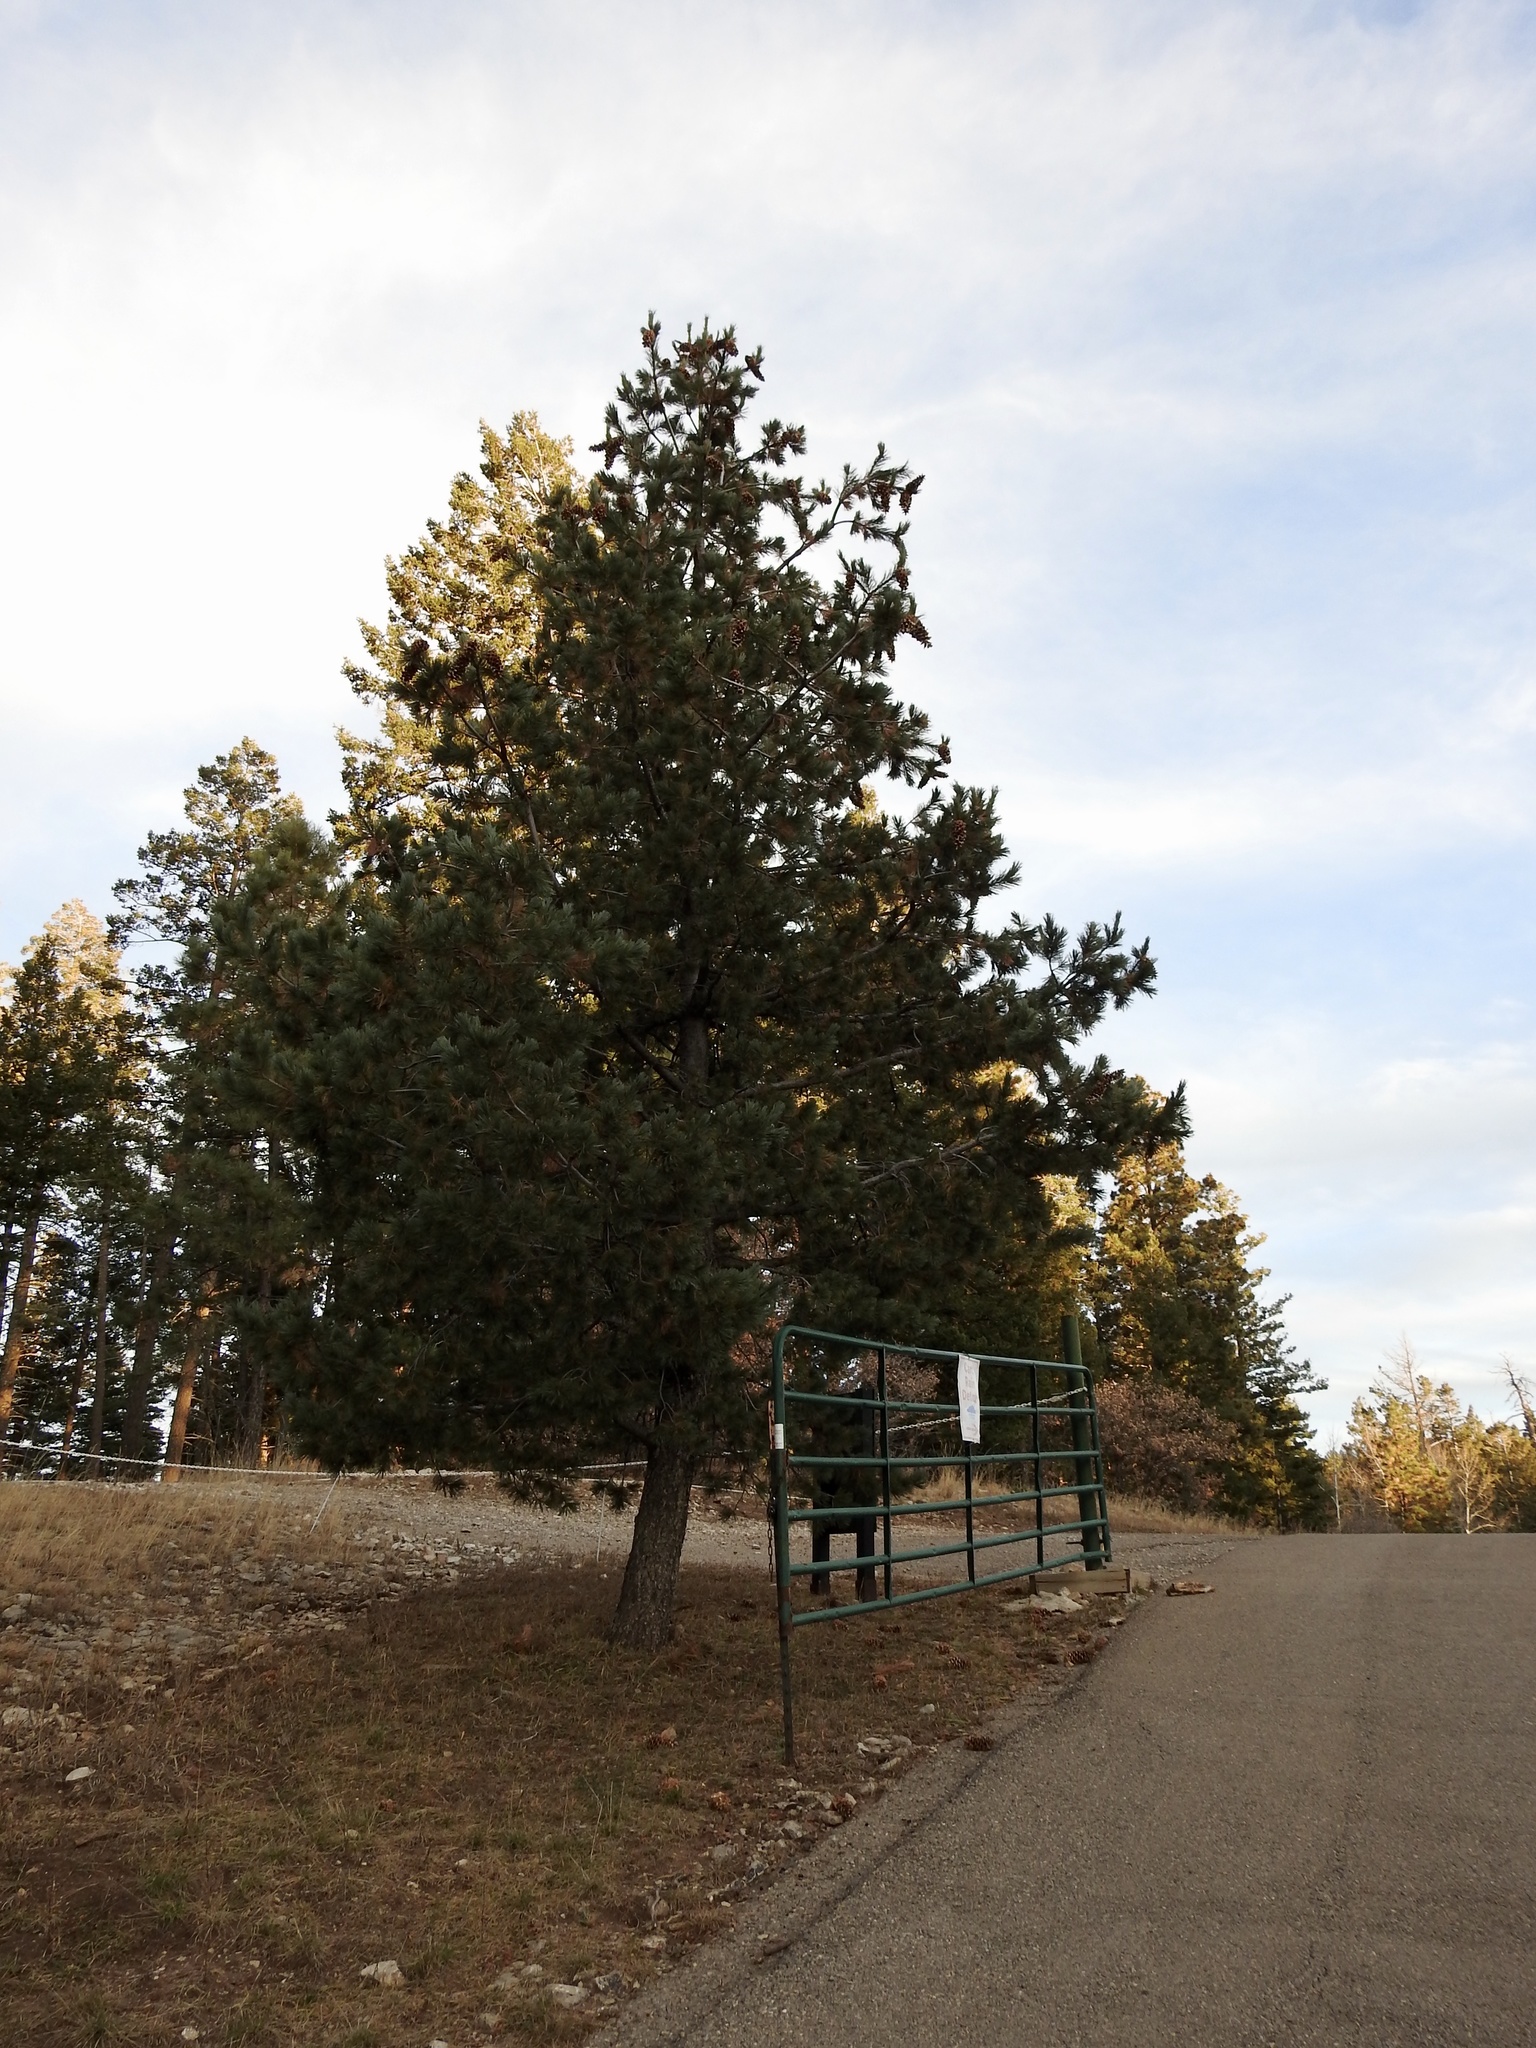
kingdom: Plantae
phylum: Tracheophyta
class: Pinopsida
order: Pinales
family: Pinaceae
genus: Pinus
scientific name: Pinus strobiformis
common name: Southwestern white pine
